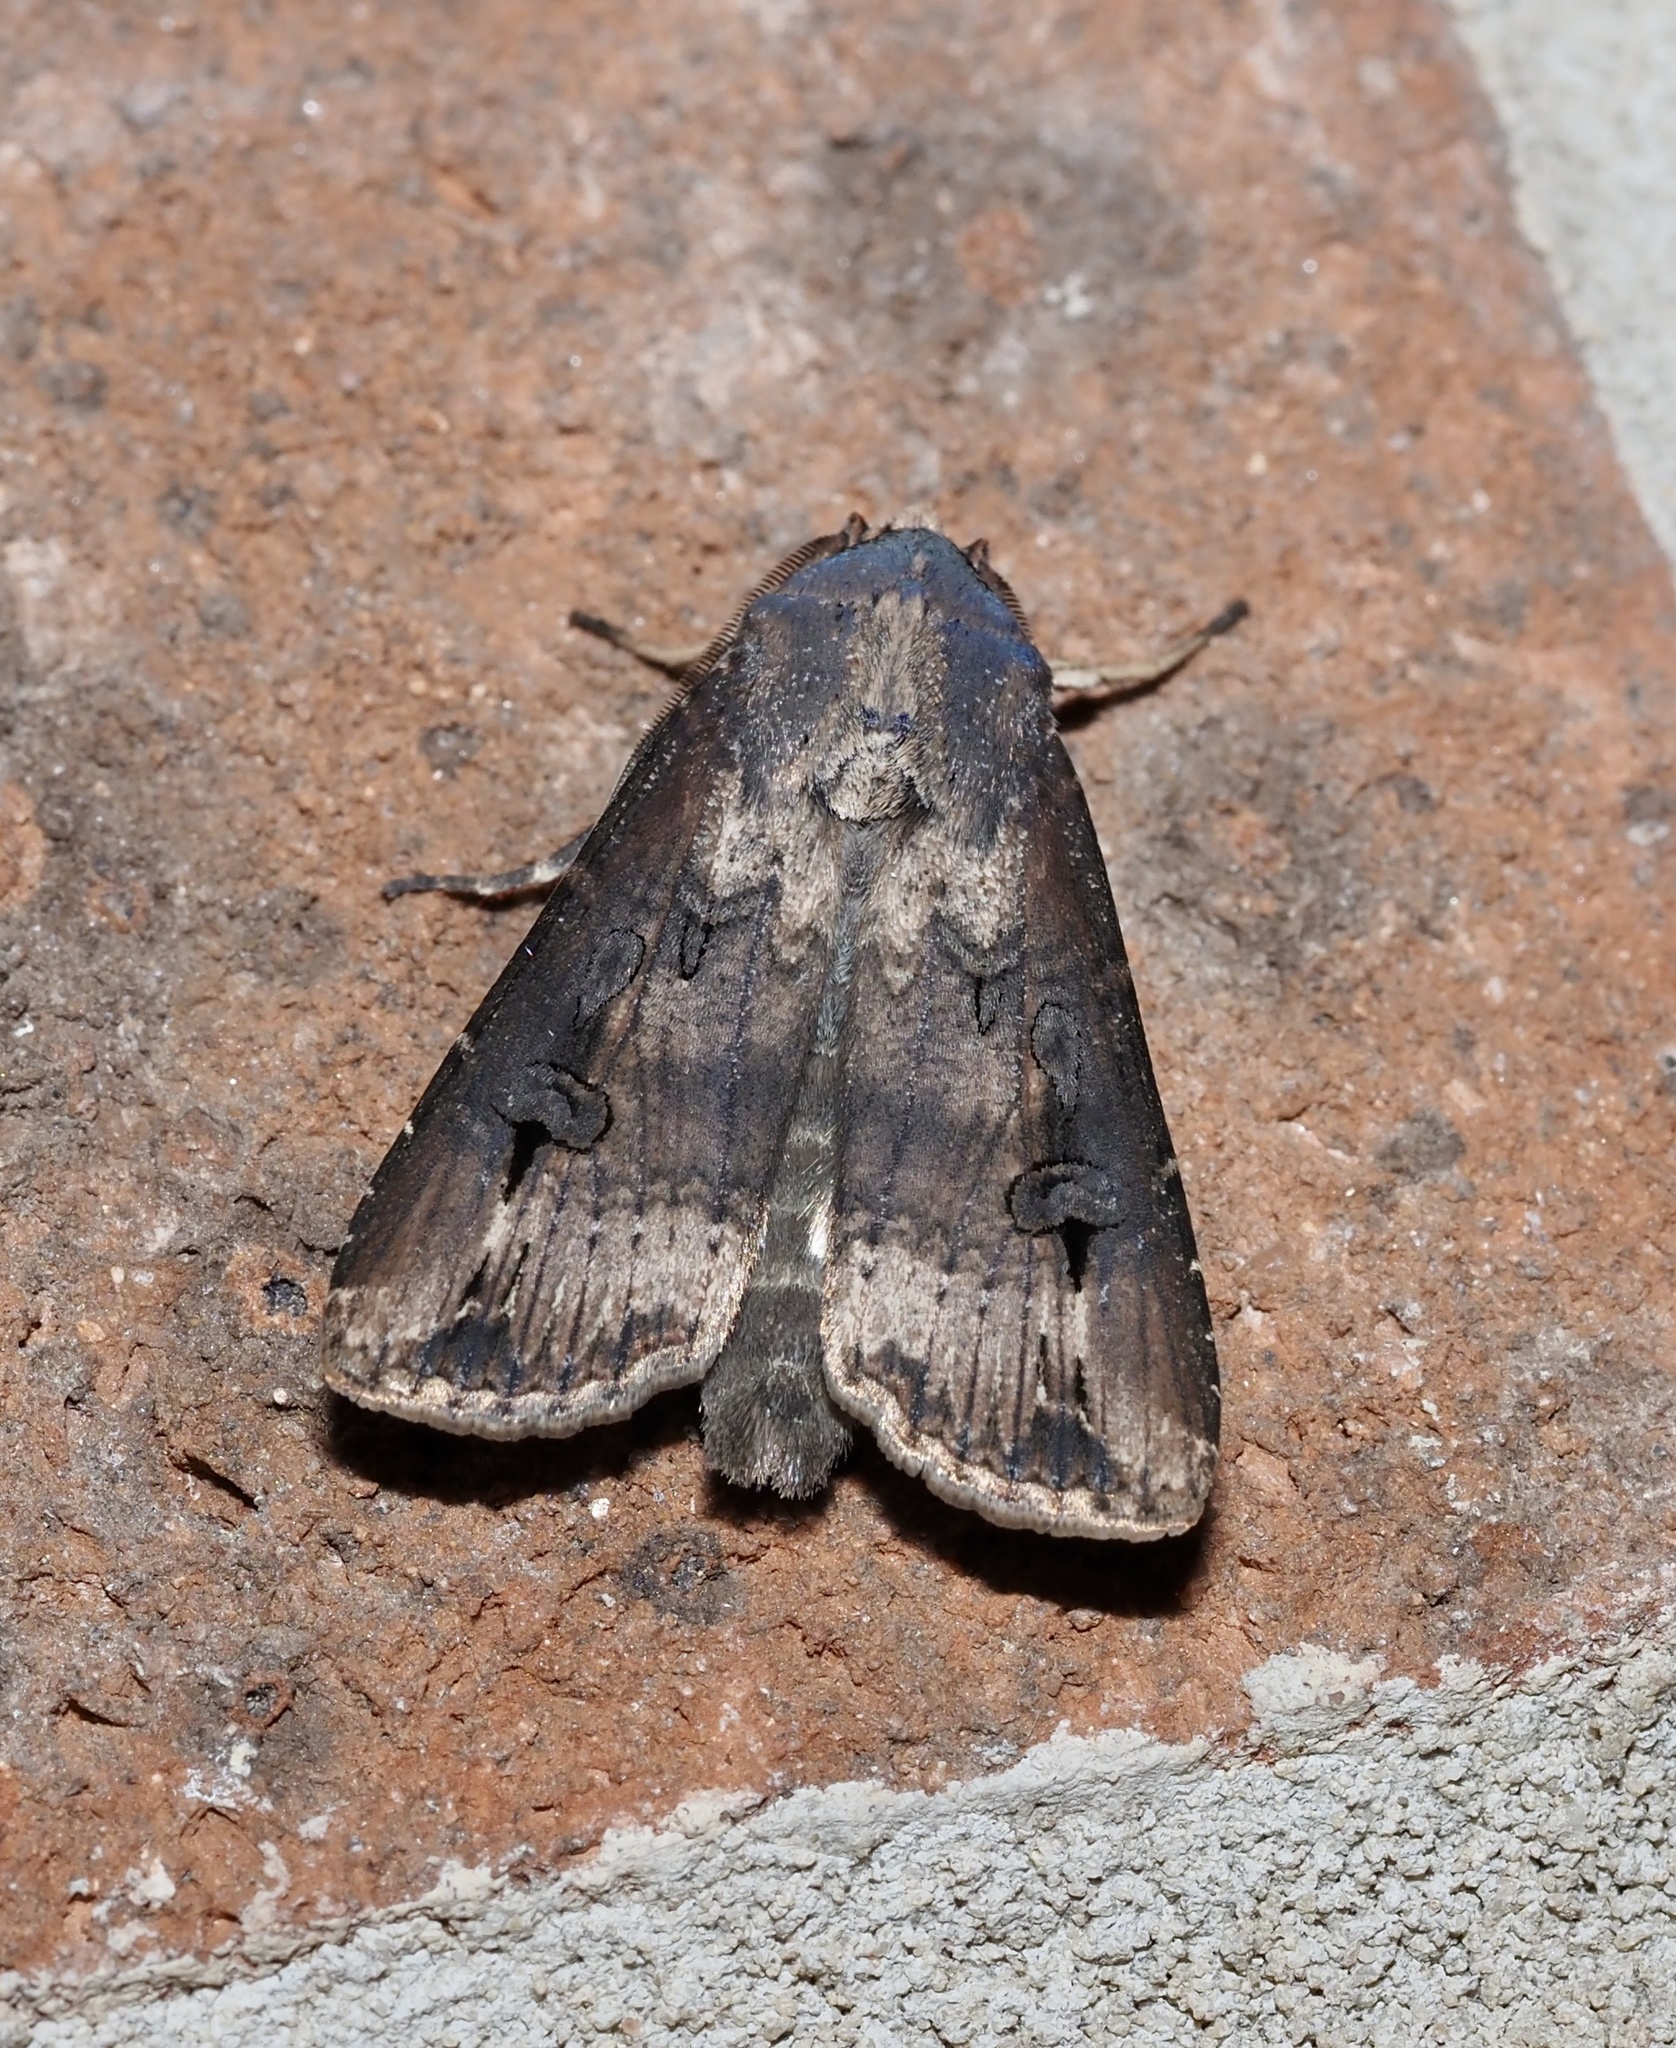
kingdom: Animalia
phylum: Arthropoda
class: Insecta
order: Lepidoptera
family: Noctuidae
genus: Agrotis
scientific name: Agrotis ipsilon
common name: Dark sword-grass
